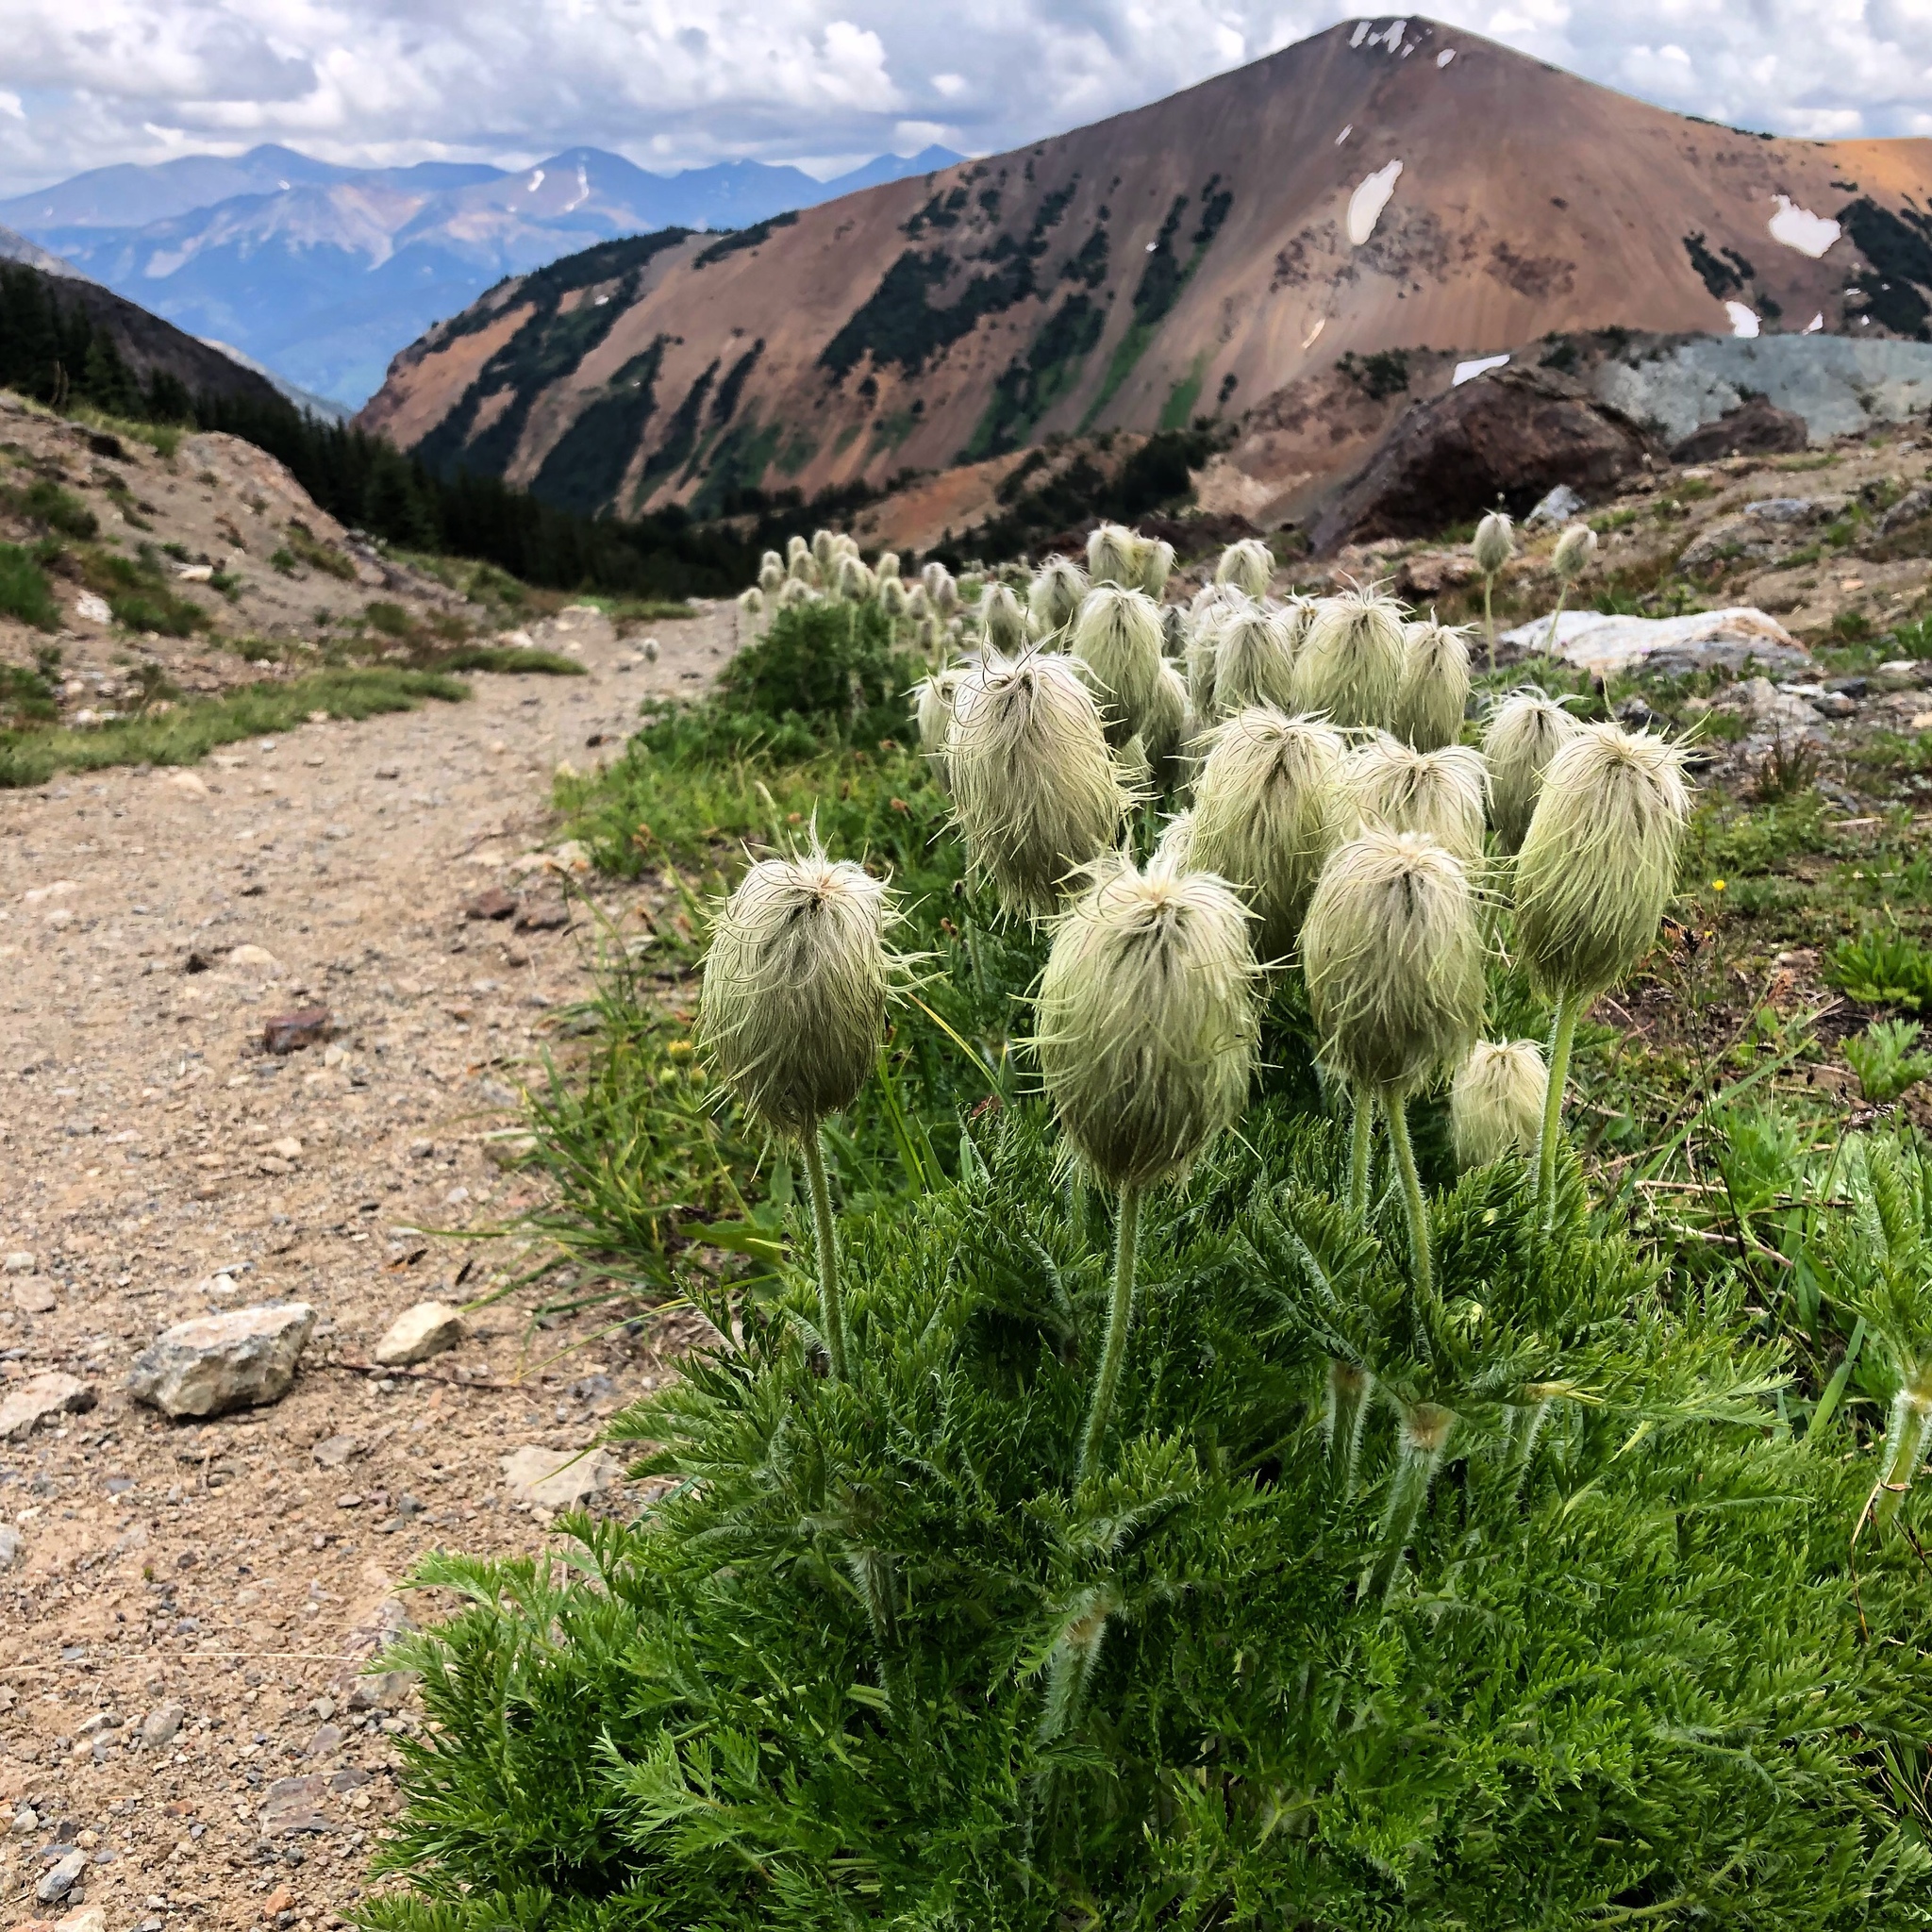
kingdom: Plantae
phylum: Tracheophyta
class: Magnoliopsida
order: Ranunculales
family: Ranunculaceae
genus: Pulsatilla
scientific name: Pulsatilla occidentalis
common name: Mountain pasqueflower
